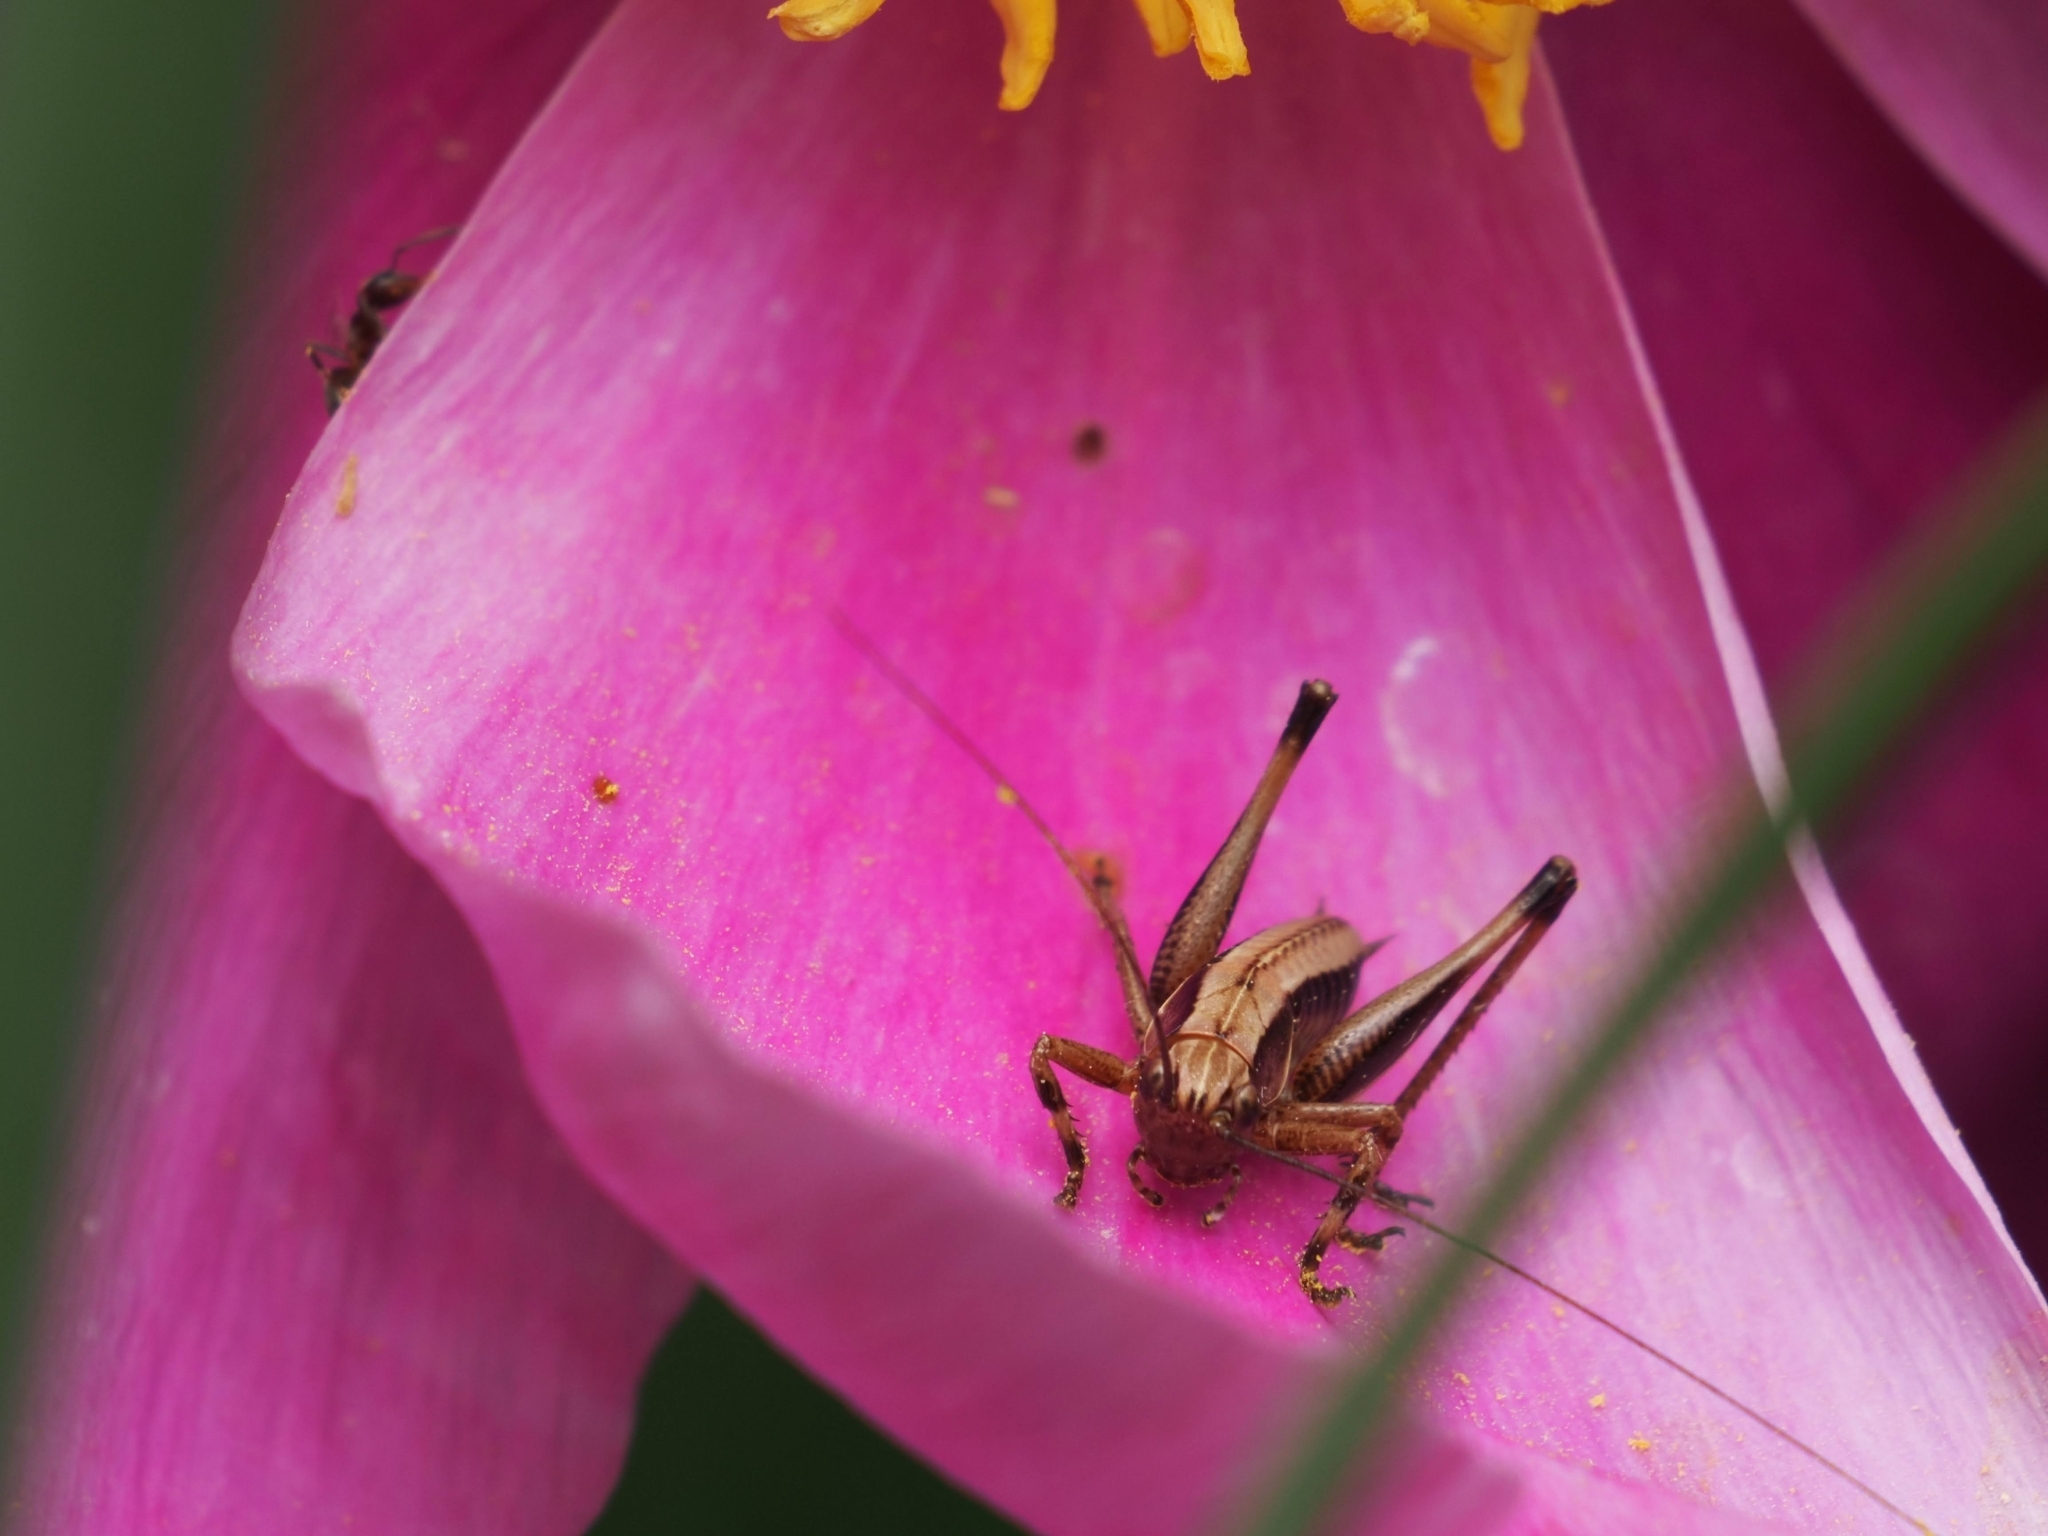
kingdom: Animalia
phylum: Arthropoda
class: Insecta
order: Orthoptera
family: Tettigoniidae
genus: Pholidoptera
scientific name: Pholidoptera griseoaptera
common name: Dark bush-cricket
